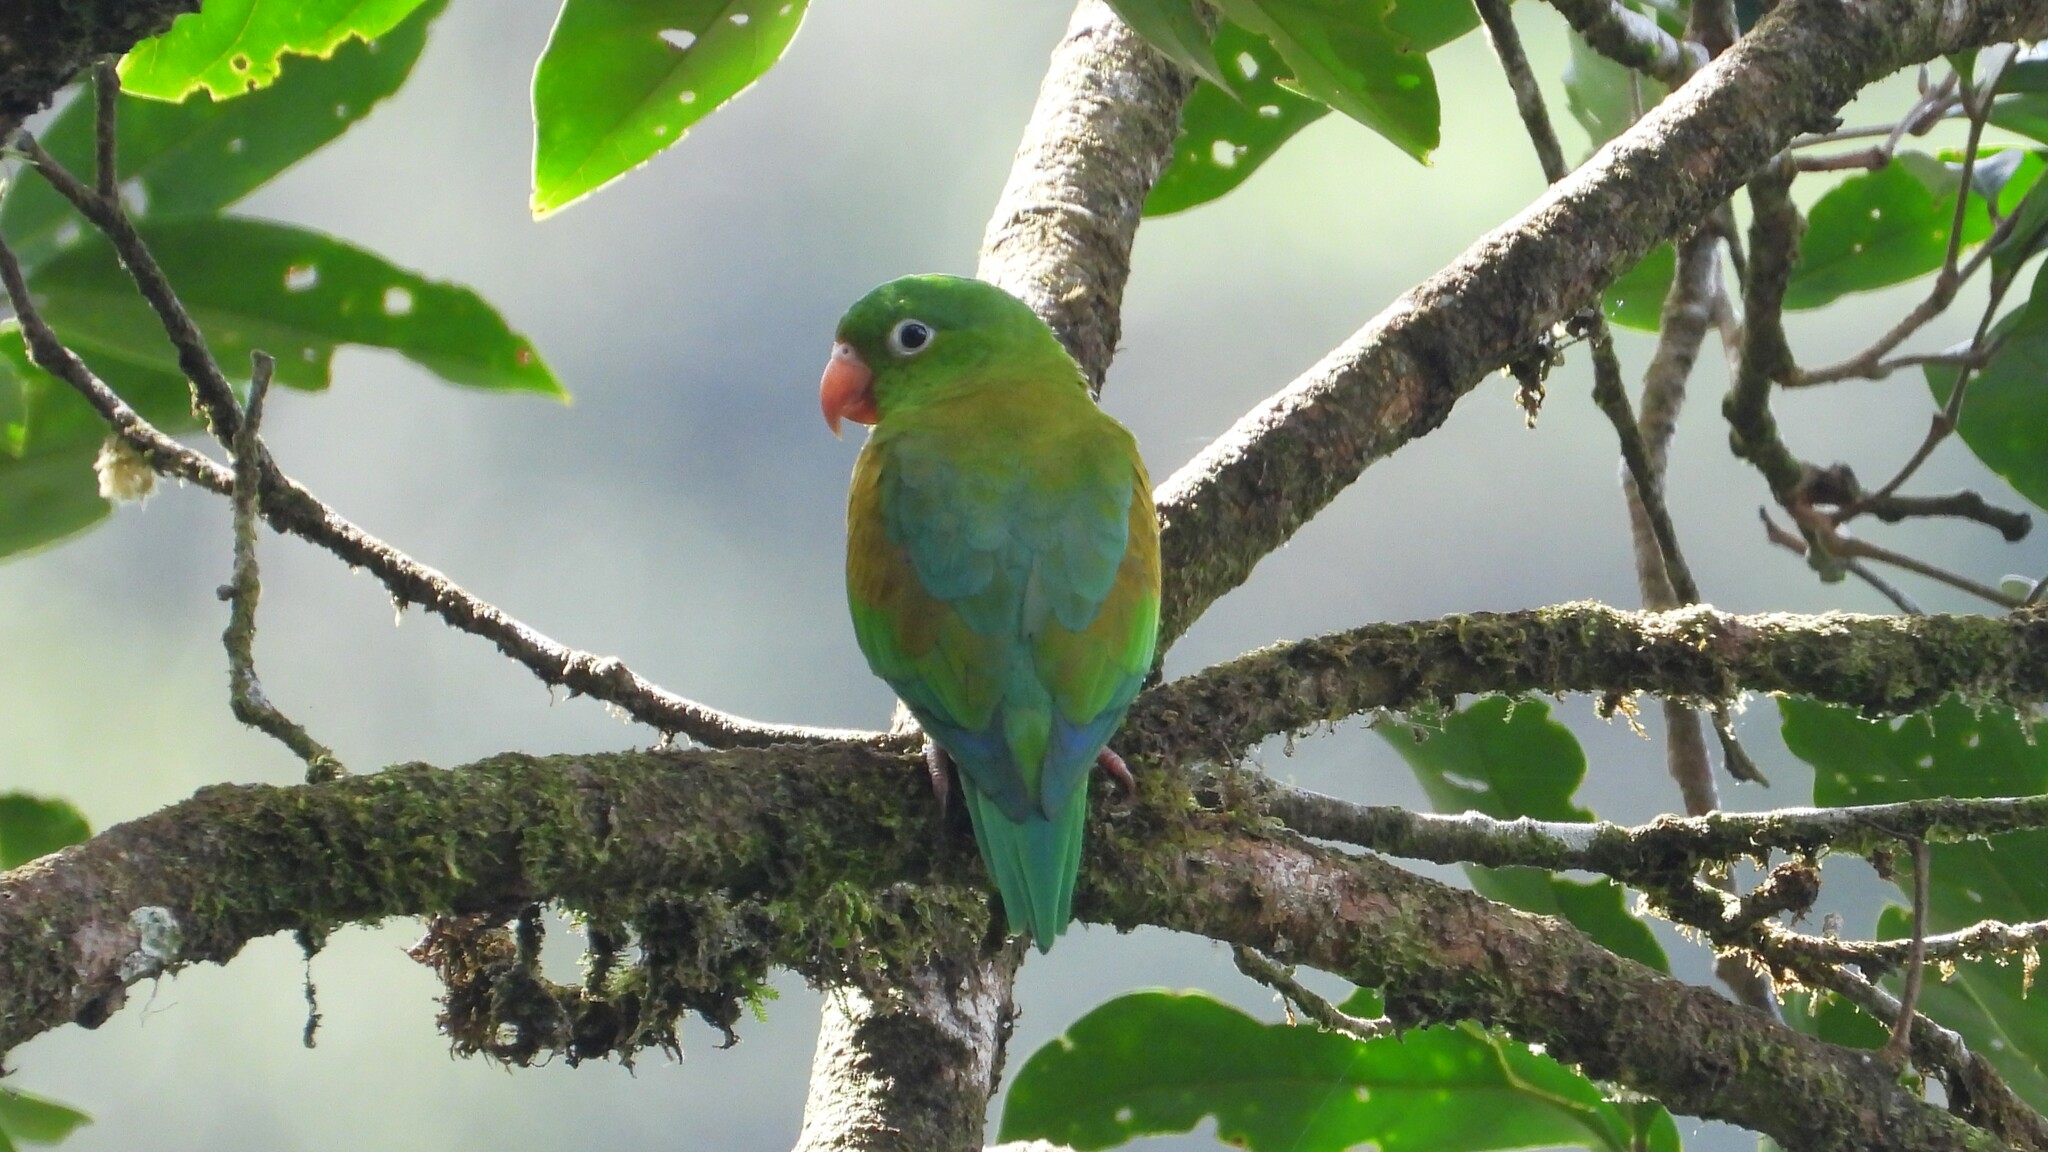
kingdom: Animalia
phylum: Chordata
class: Aves
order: Psittaciformes
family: Psittacidae
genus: Brotogeris
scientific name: Brotogeris jugularis
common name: Orange-chinned parakeet
